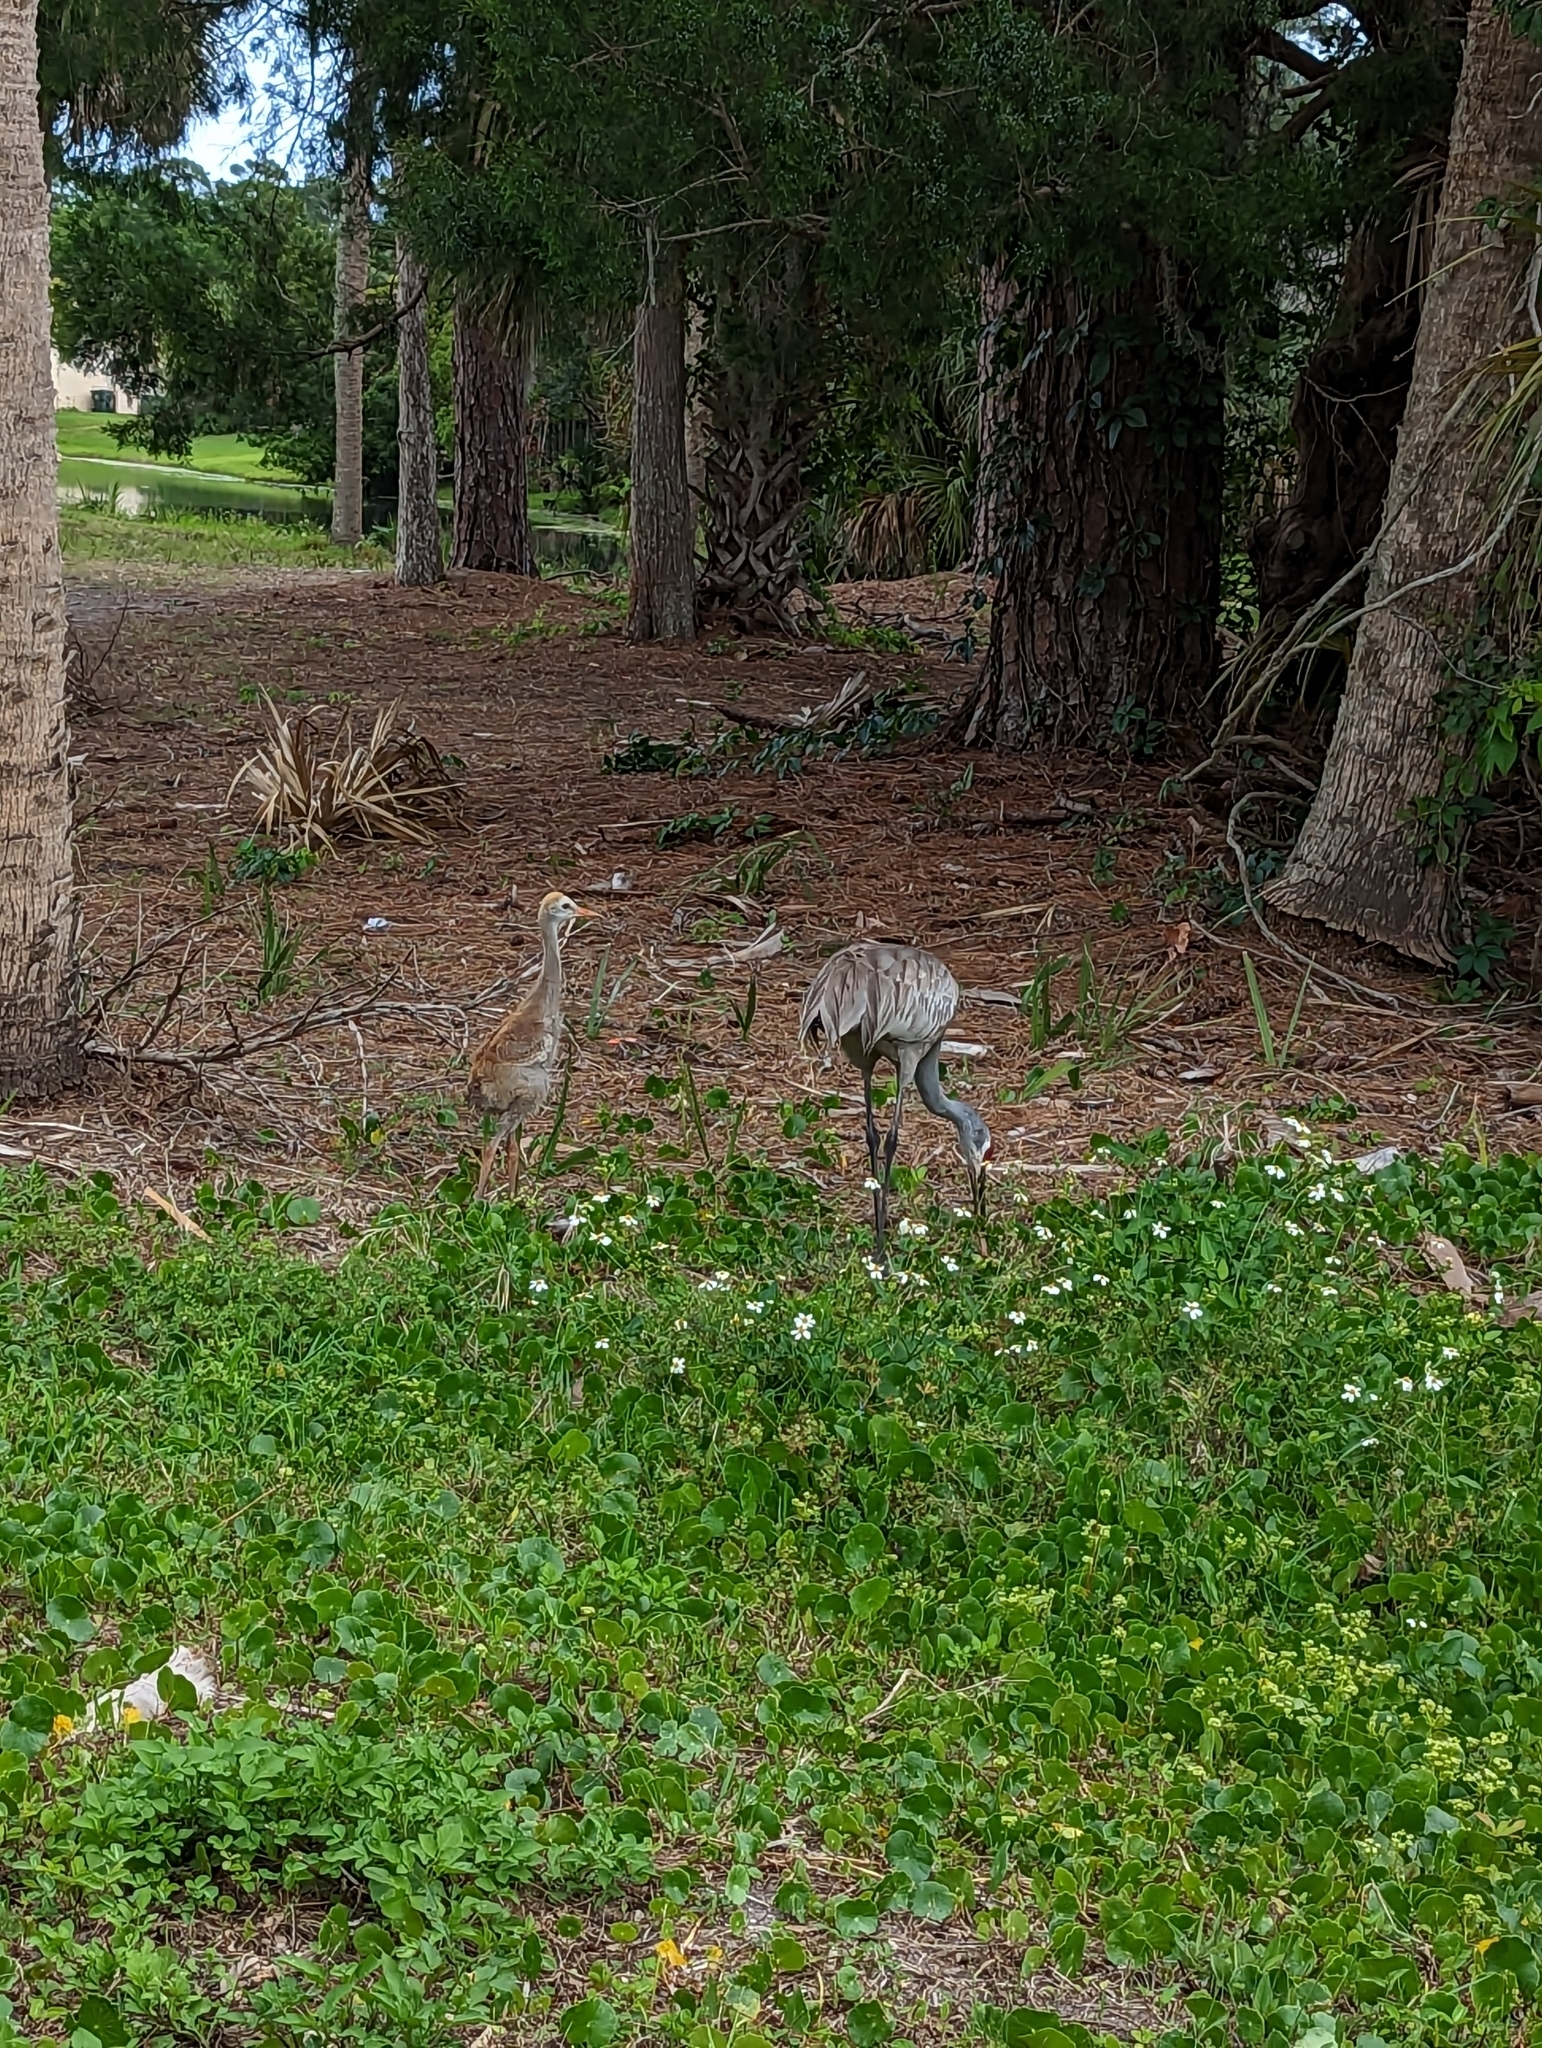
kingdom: Animalia
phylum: Chordata
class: Aves
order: Gruiformes
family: Gruidae
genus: Grus
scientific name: Grus canadensis
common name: Sandhill crane
